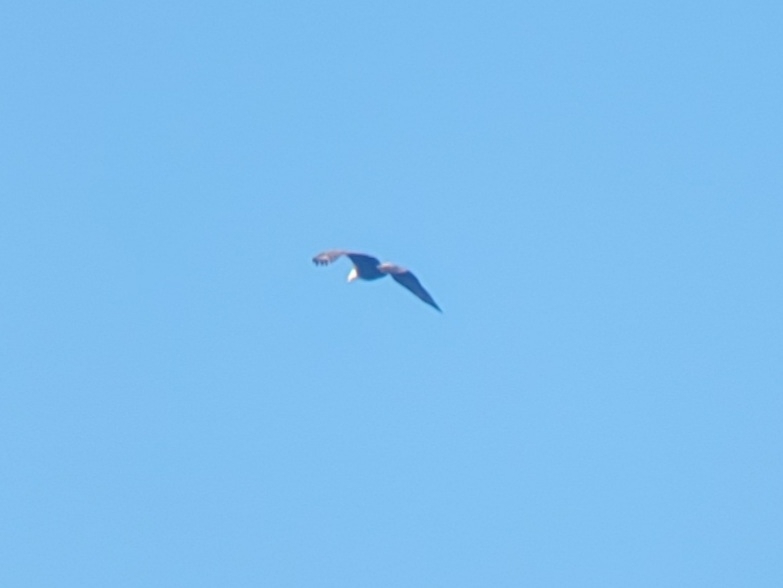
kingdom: Animalia
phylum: Chordata
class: Aves
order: Accipitriformes
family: Accipitridae
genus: Haliaeetus
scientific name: Haliaeetus leucocephalus
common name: Bald eagle
